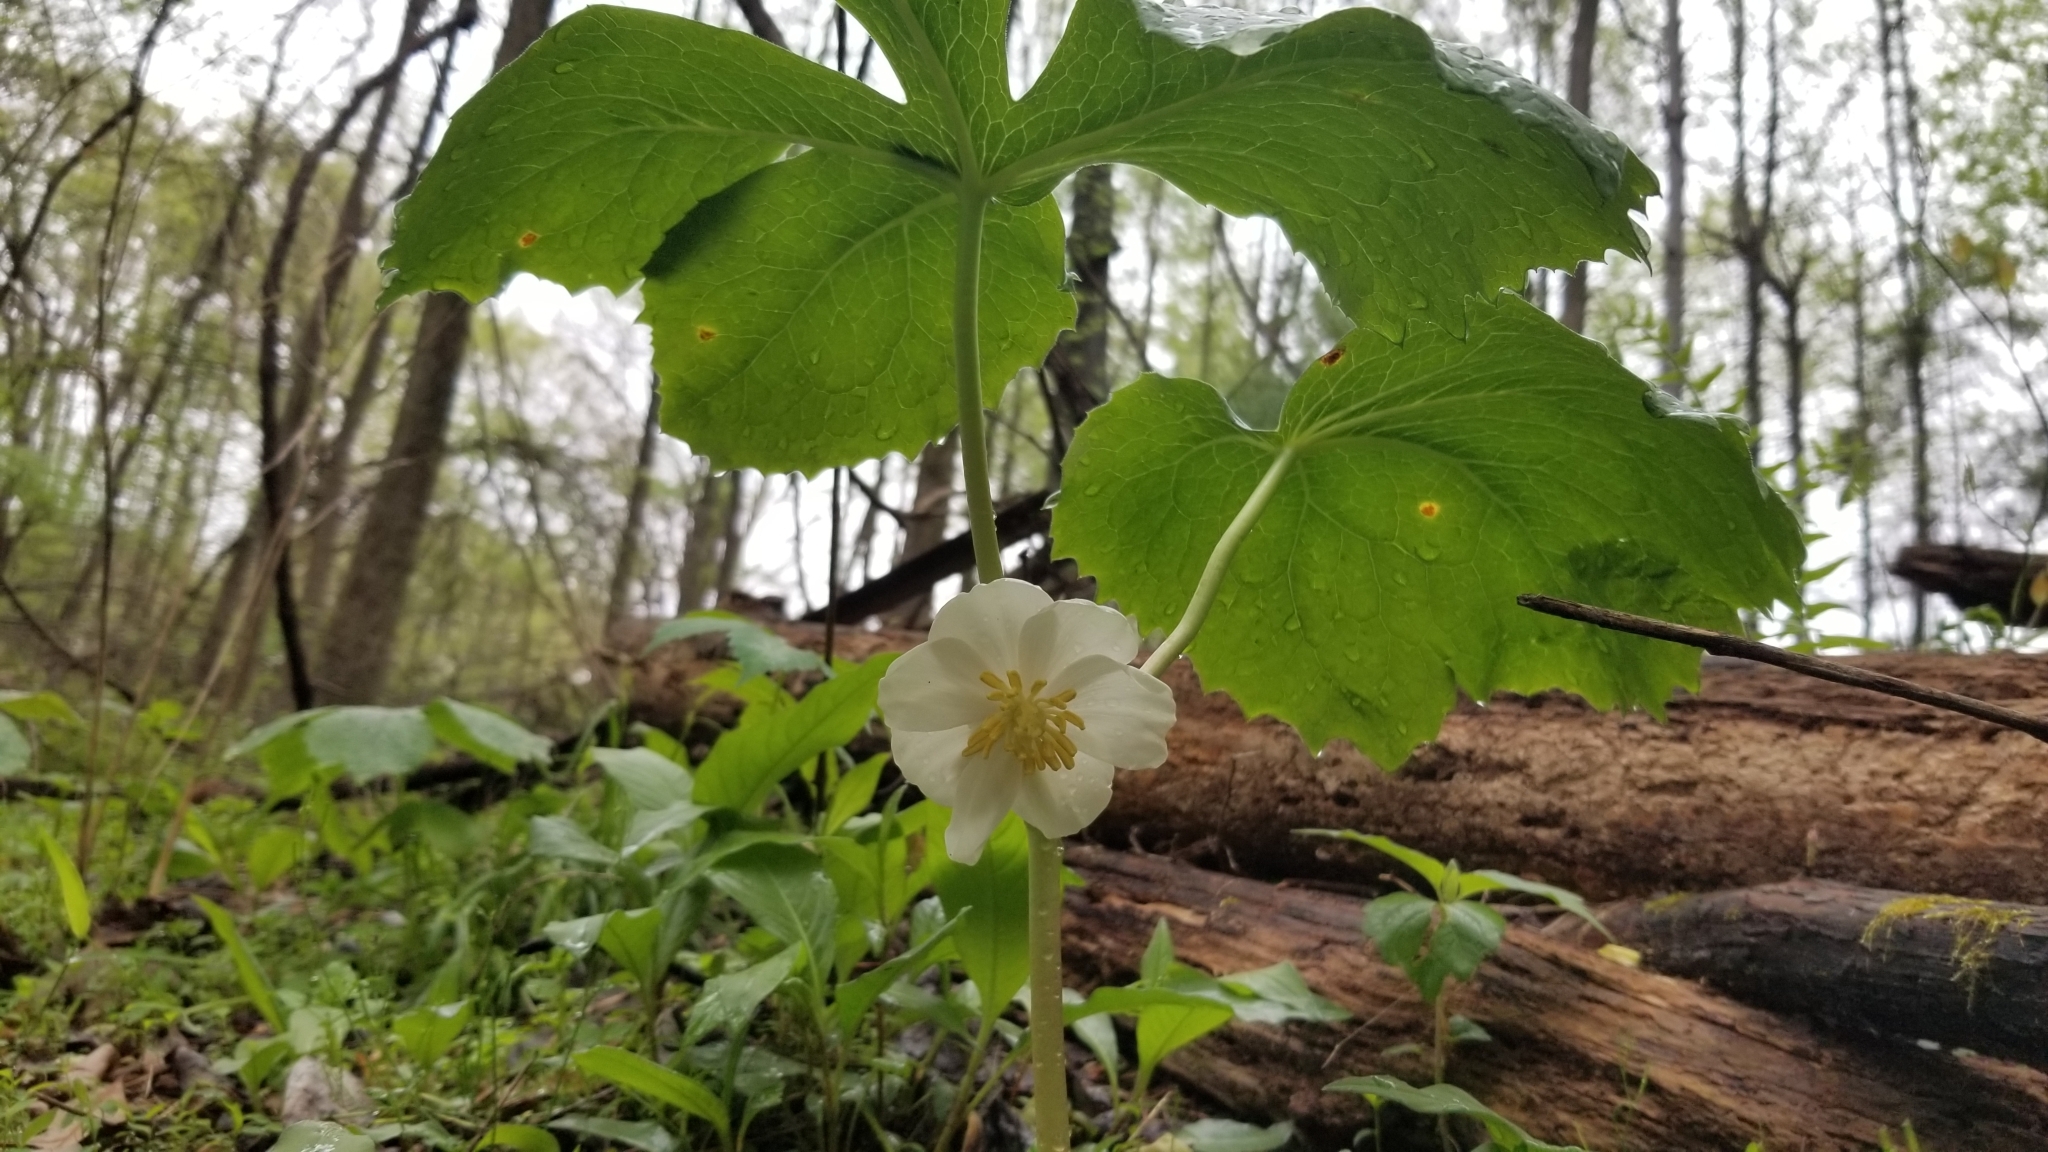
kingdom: Plantae
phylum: Tracheophyta
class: Magnoliopsida
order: Ranunculales
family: Berberidaceae
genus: Podophyllum
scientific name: Podophyllum peltatum
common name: Wild mandrake
